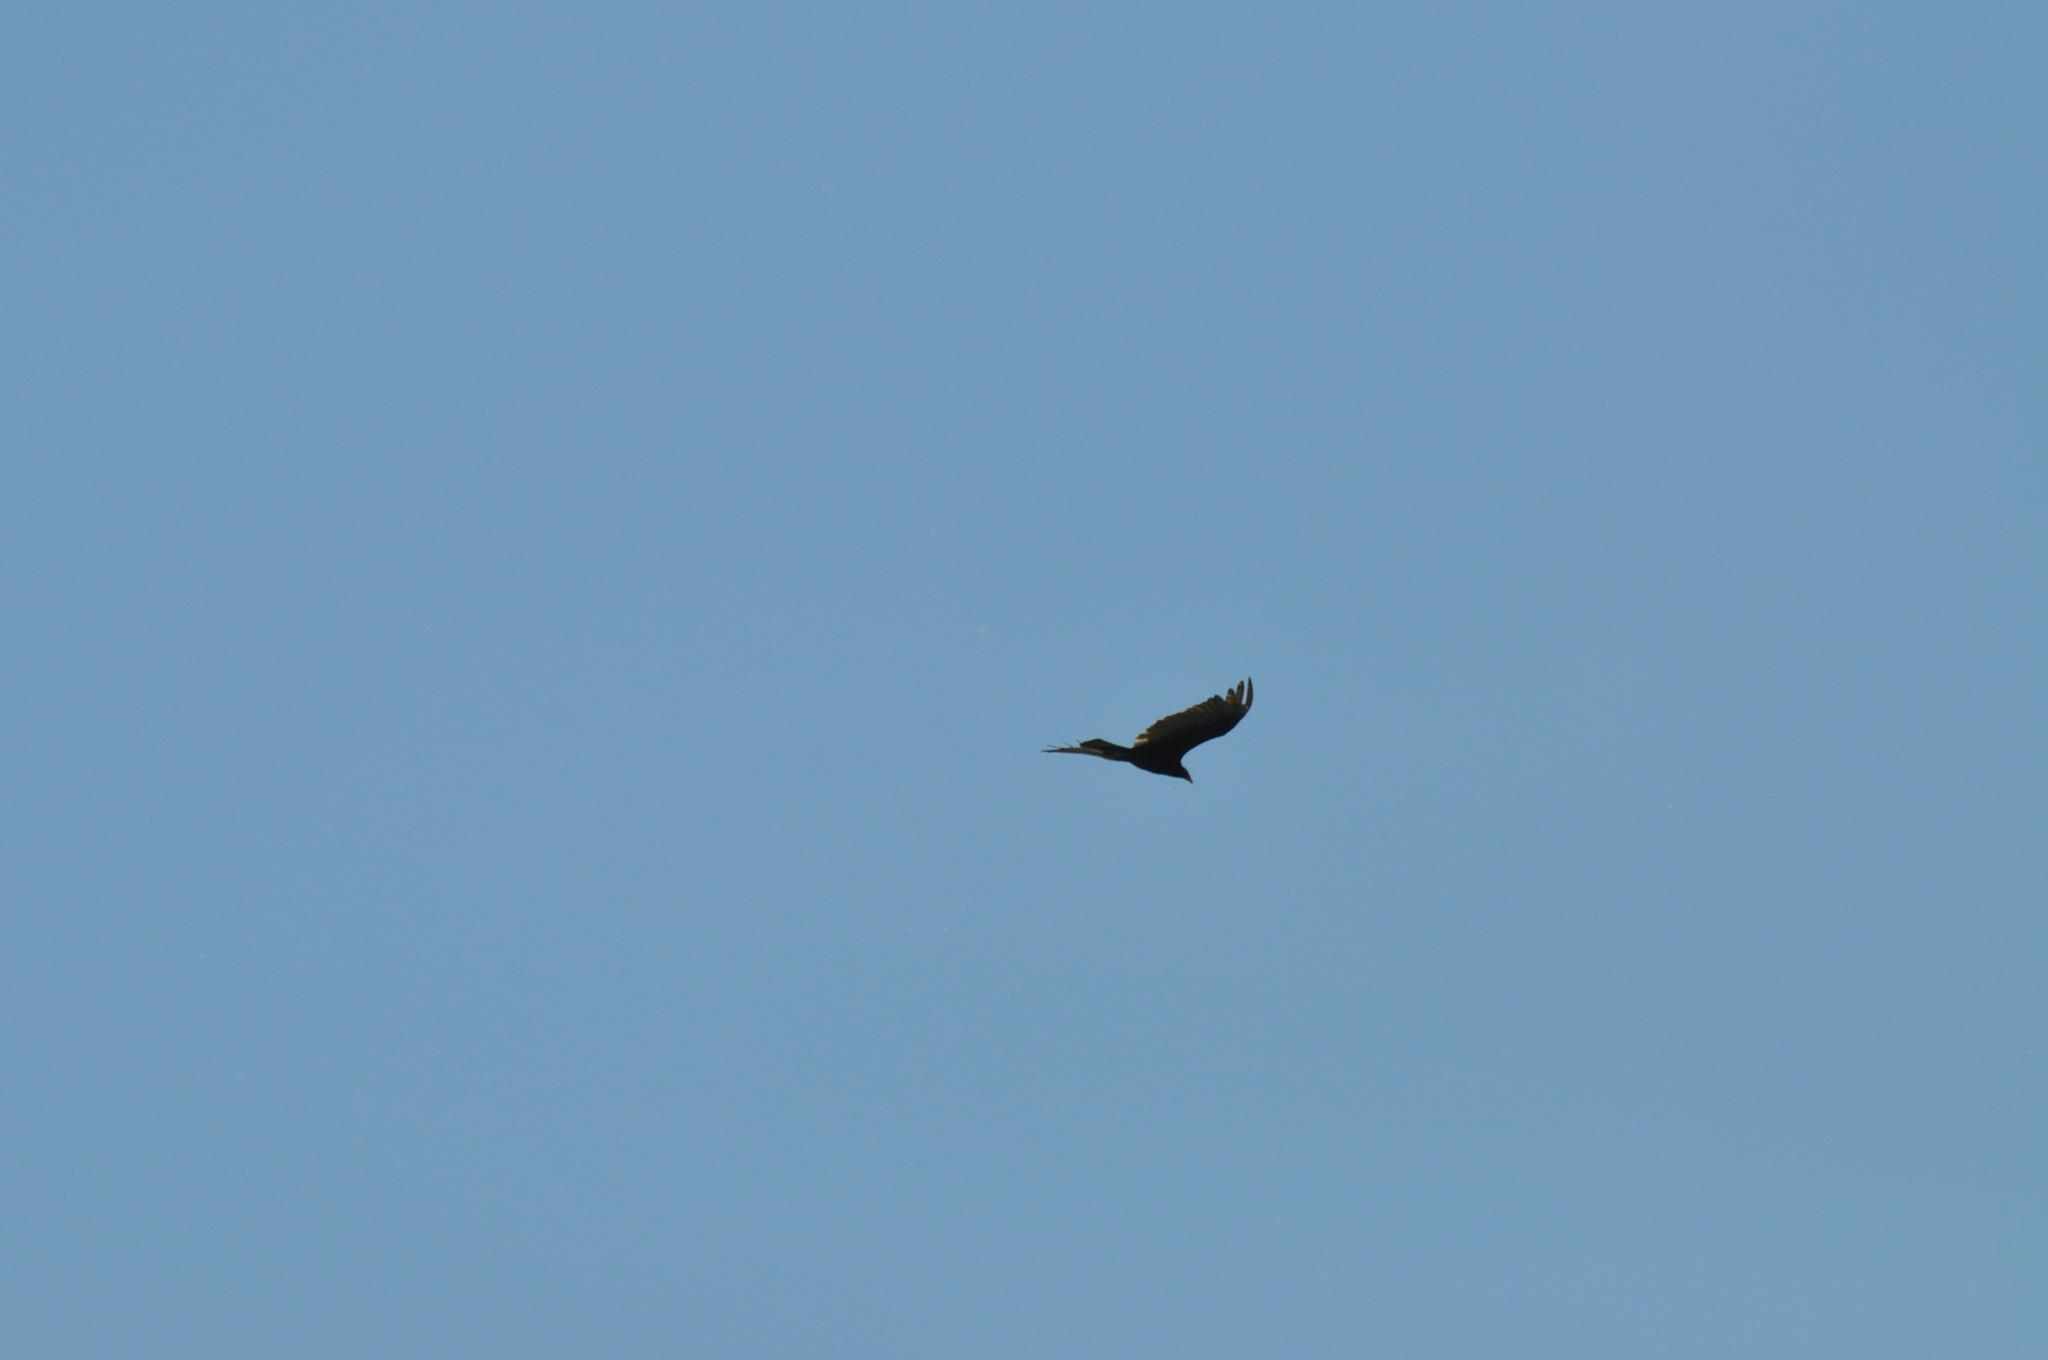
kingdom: Animalia
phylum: Chordata
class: Aves
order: Accipitriformes
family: Cathartidae
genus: Cathartes
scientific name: Cathartes aura
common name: Turkey vulture
